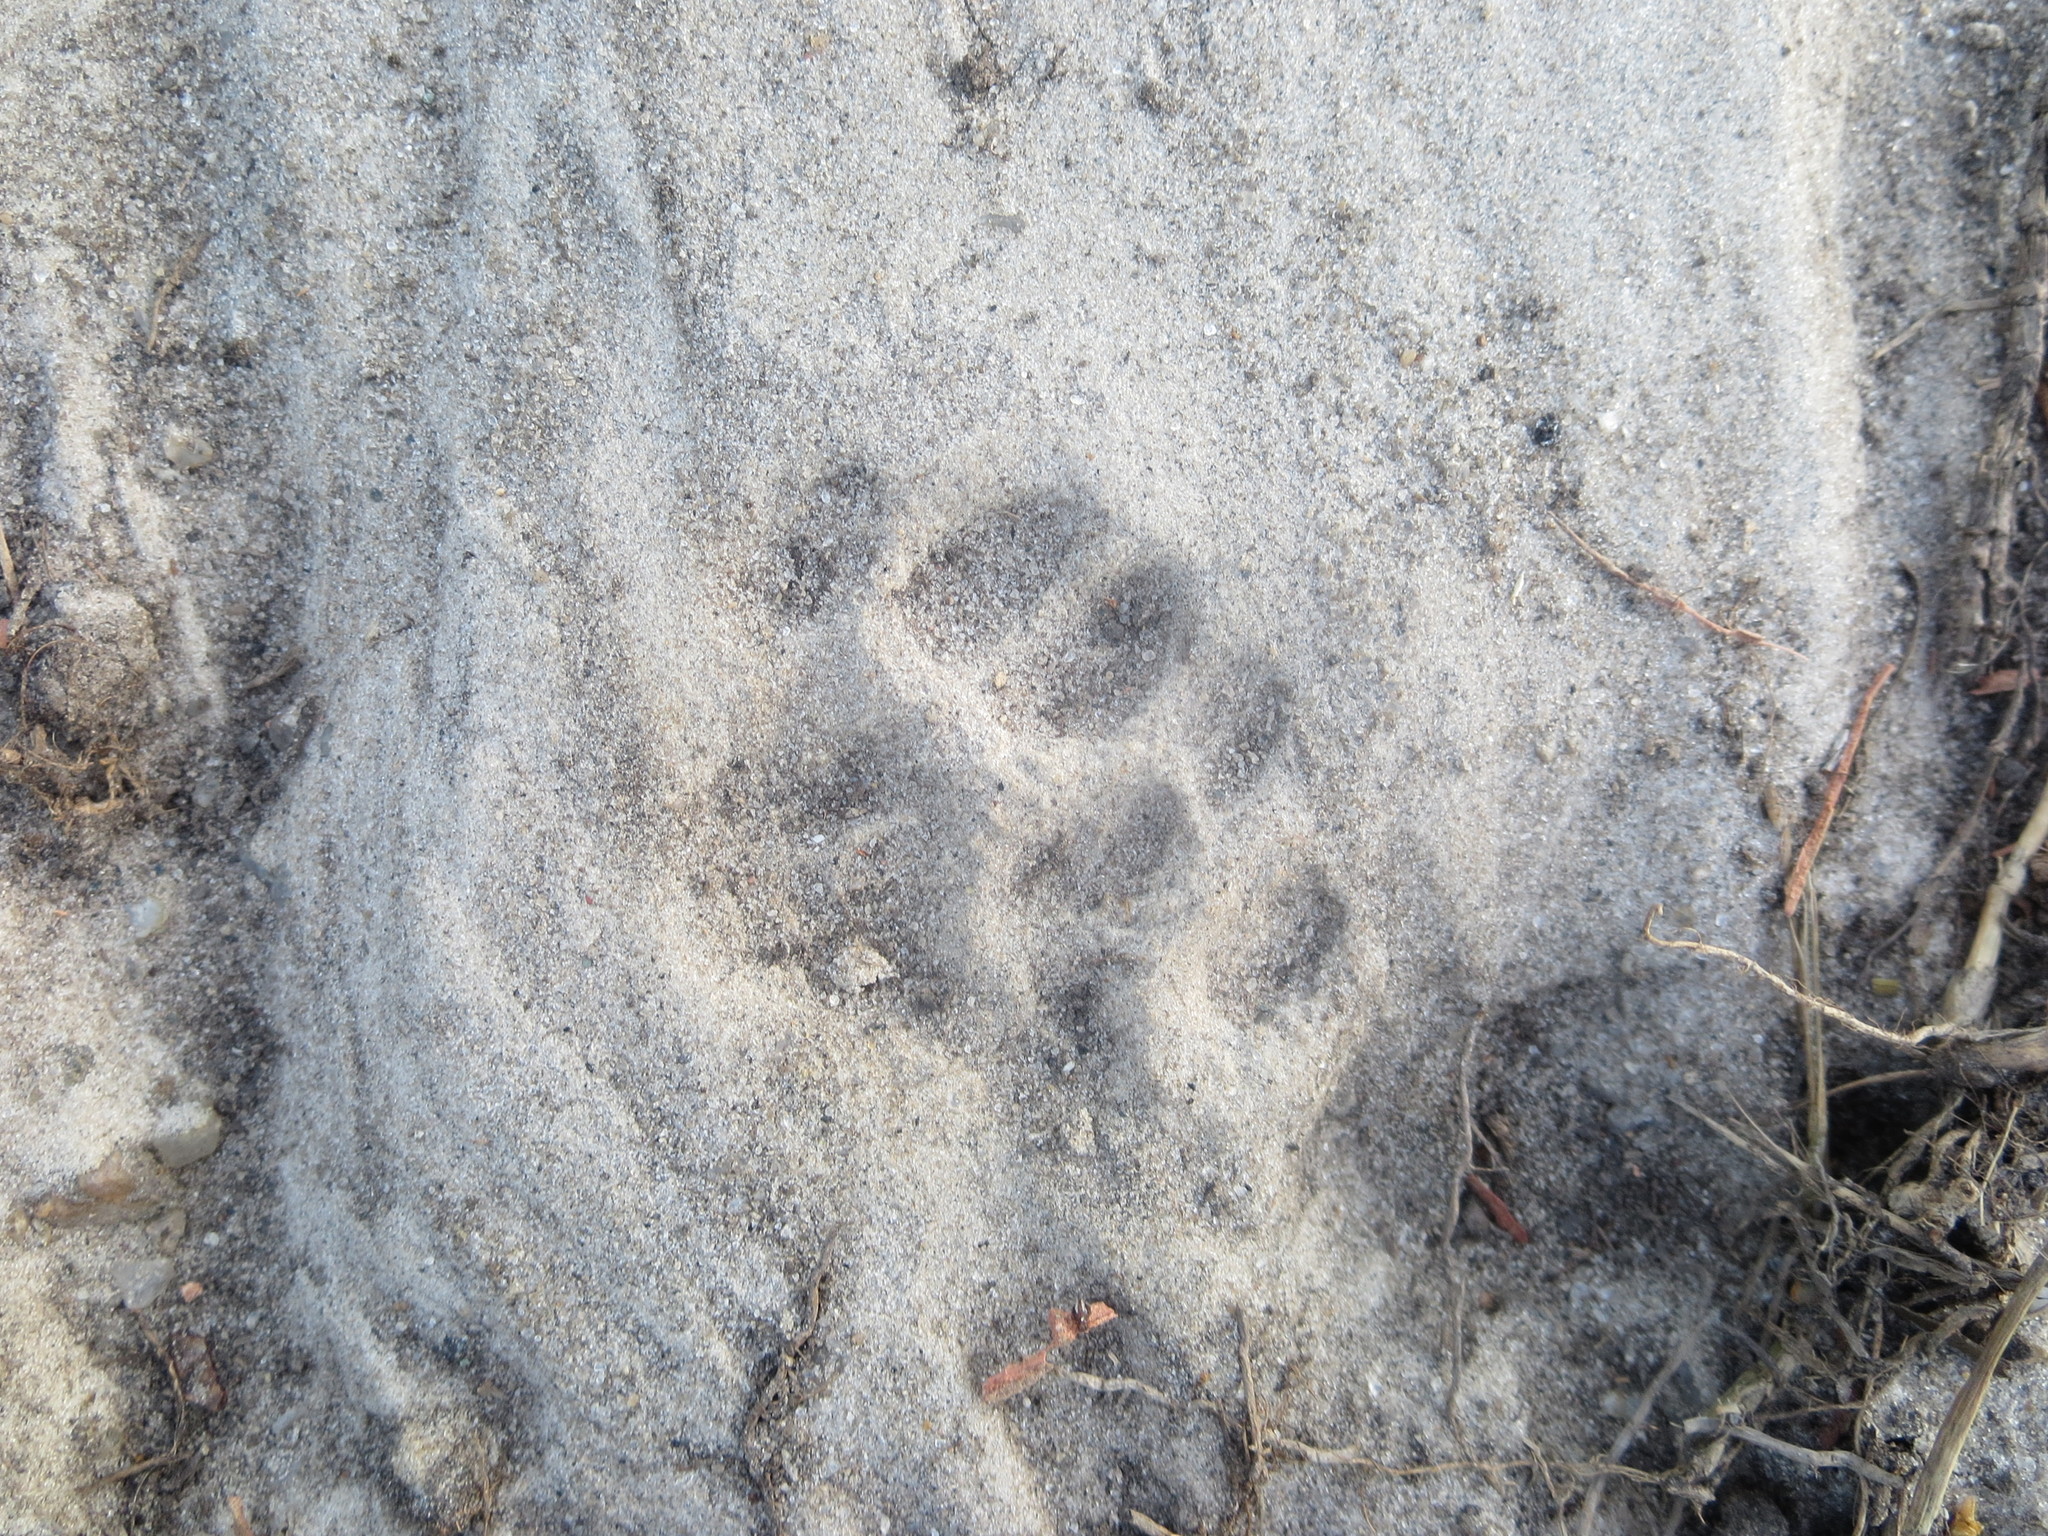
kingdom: Animalia
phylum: Chordata
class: Mammalia
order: Carnivora
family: Felidae
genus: Felis
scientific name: Felis catus
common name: Domestic cat
